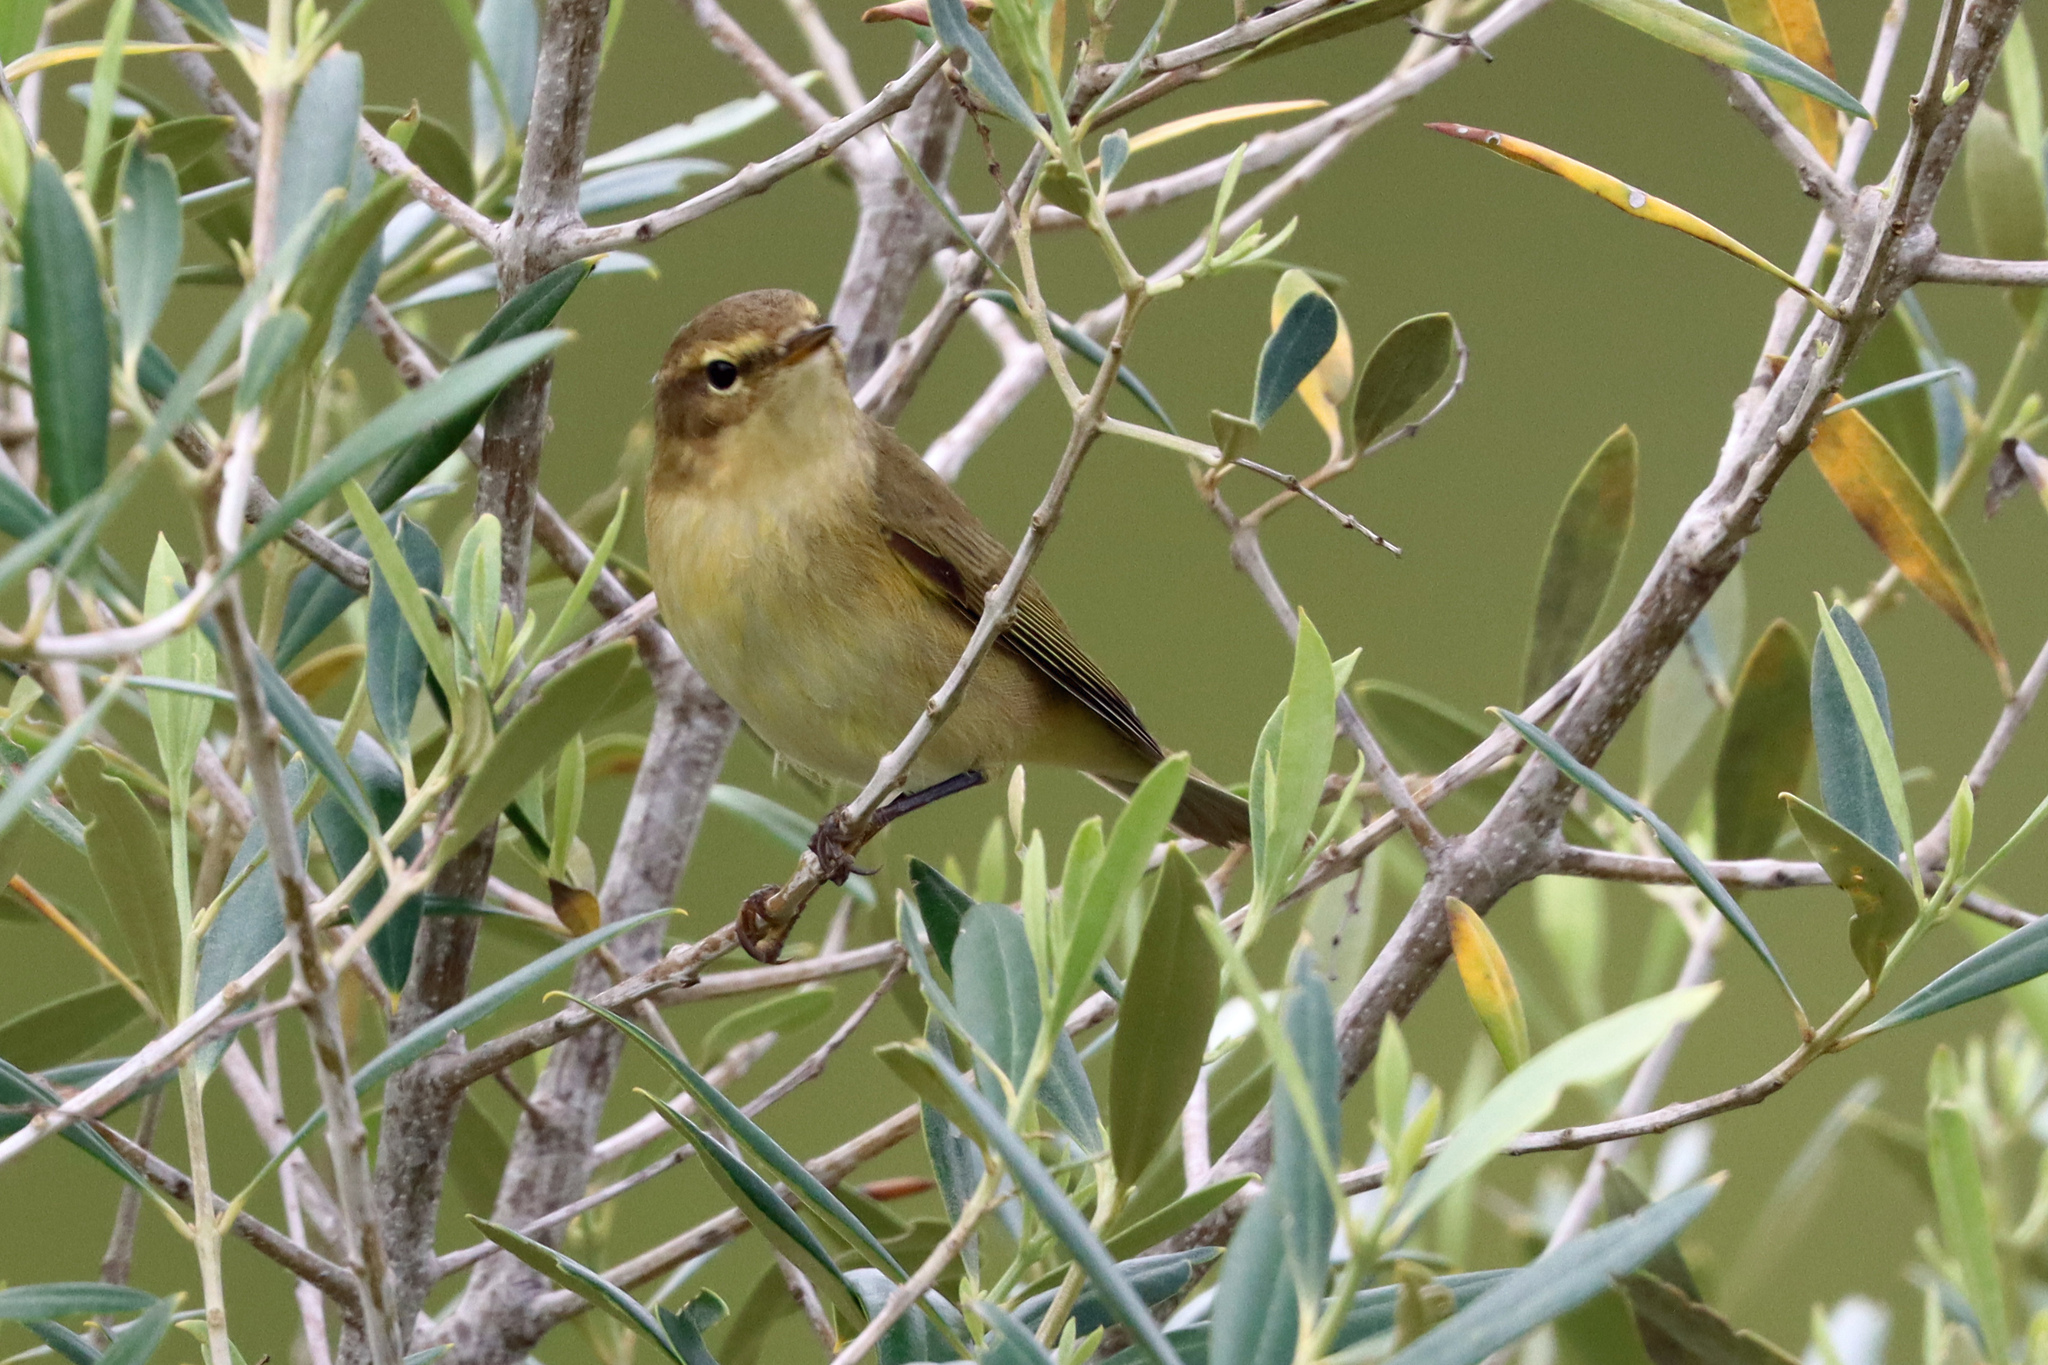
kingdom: Animalia
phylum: Chordata
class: Aves
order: Passeriformes
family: Phylloscopidae
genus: Phylloscopus
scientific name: Phylloscopus collybita
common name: Common chiffchaff
